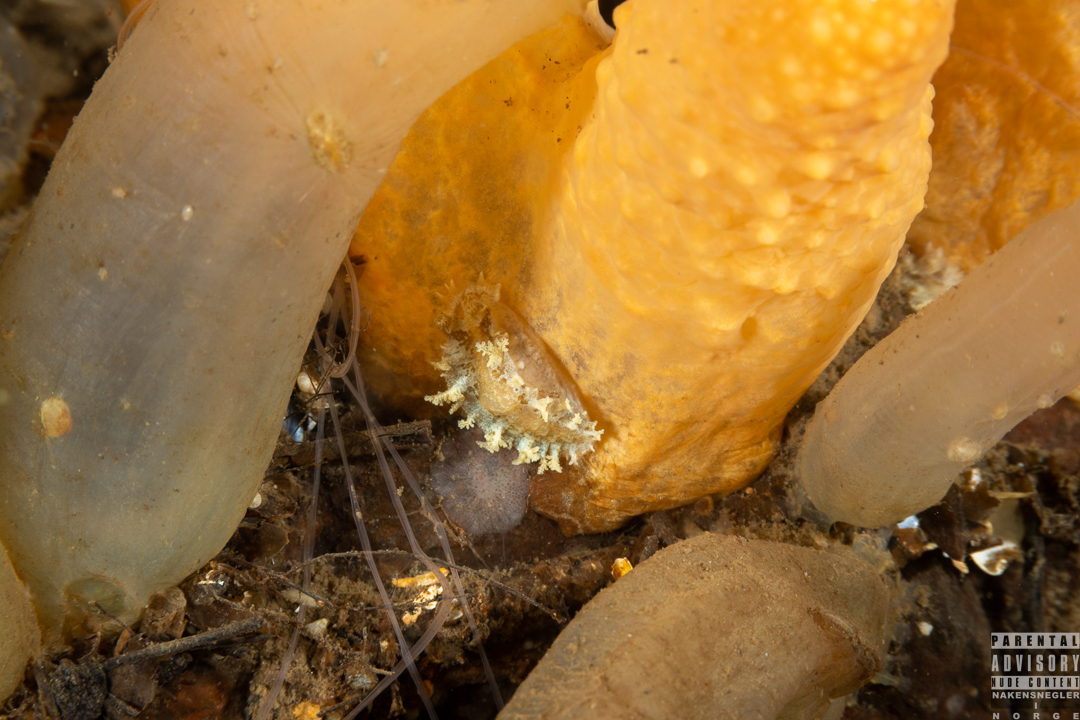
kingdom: Animalia
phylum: Mollusca
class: Gastropoda
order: Nudibranchia
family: Tritoniidae
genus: Duvaucelia
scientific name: Duvaucelia plebeia
